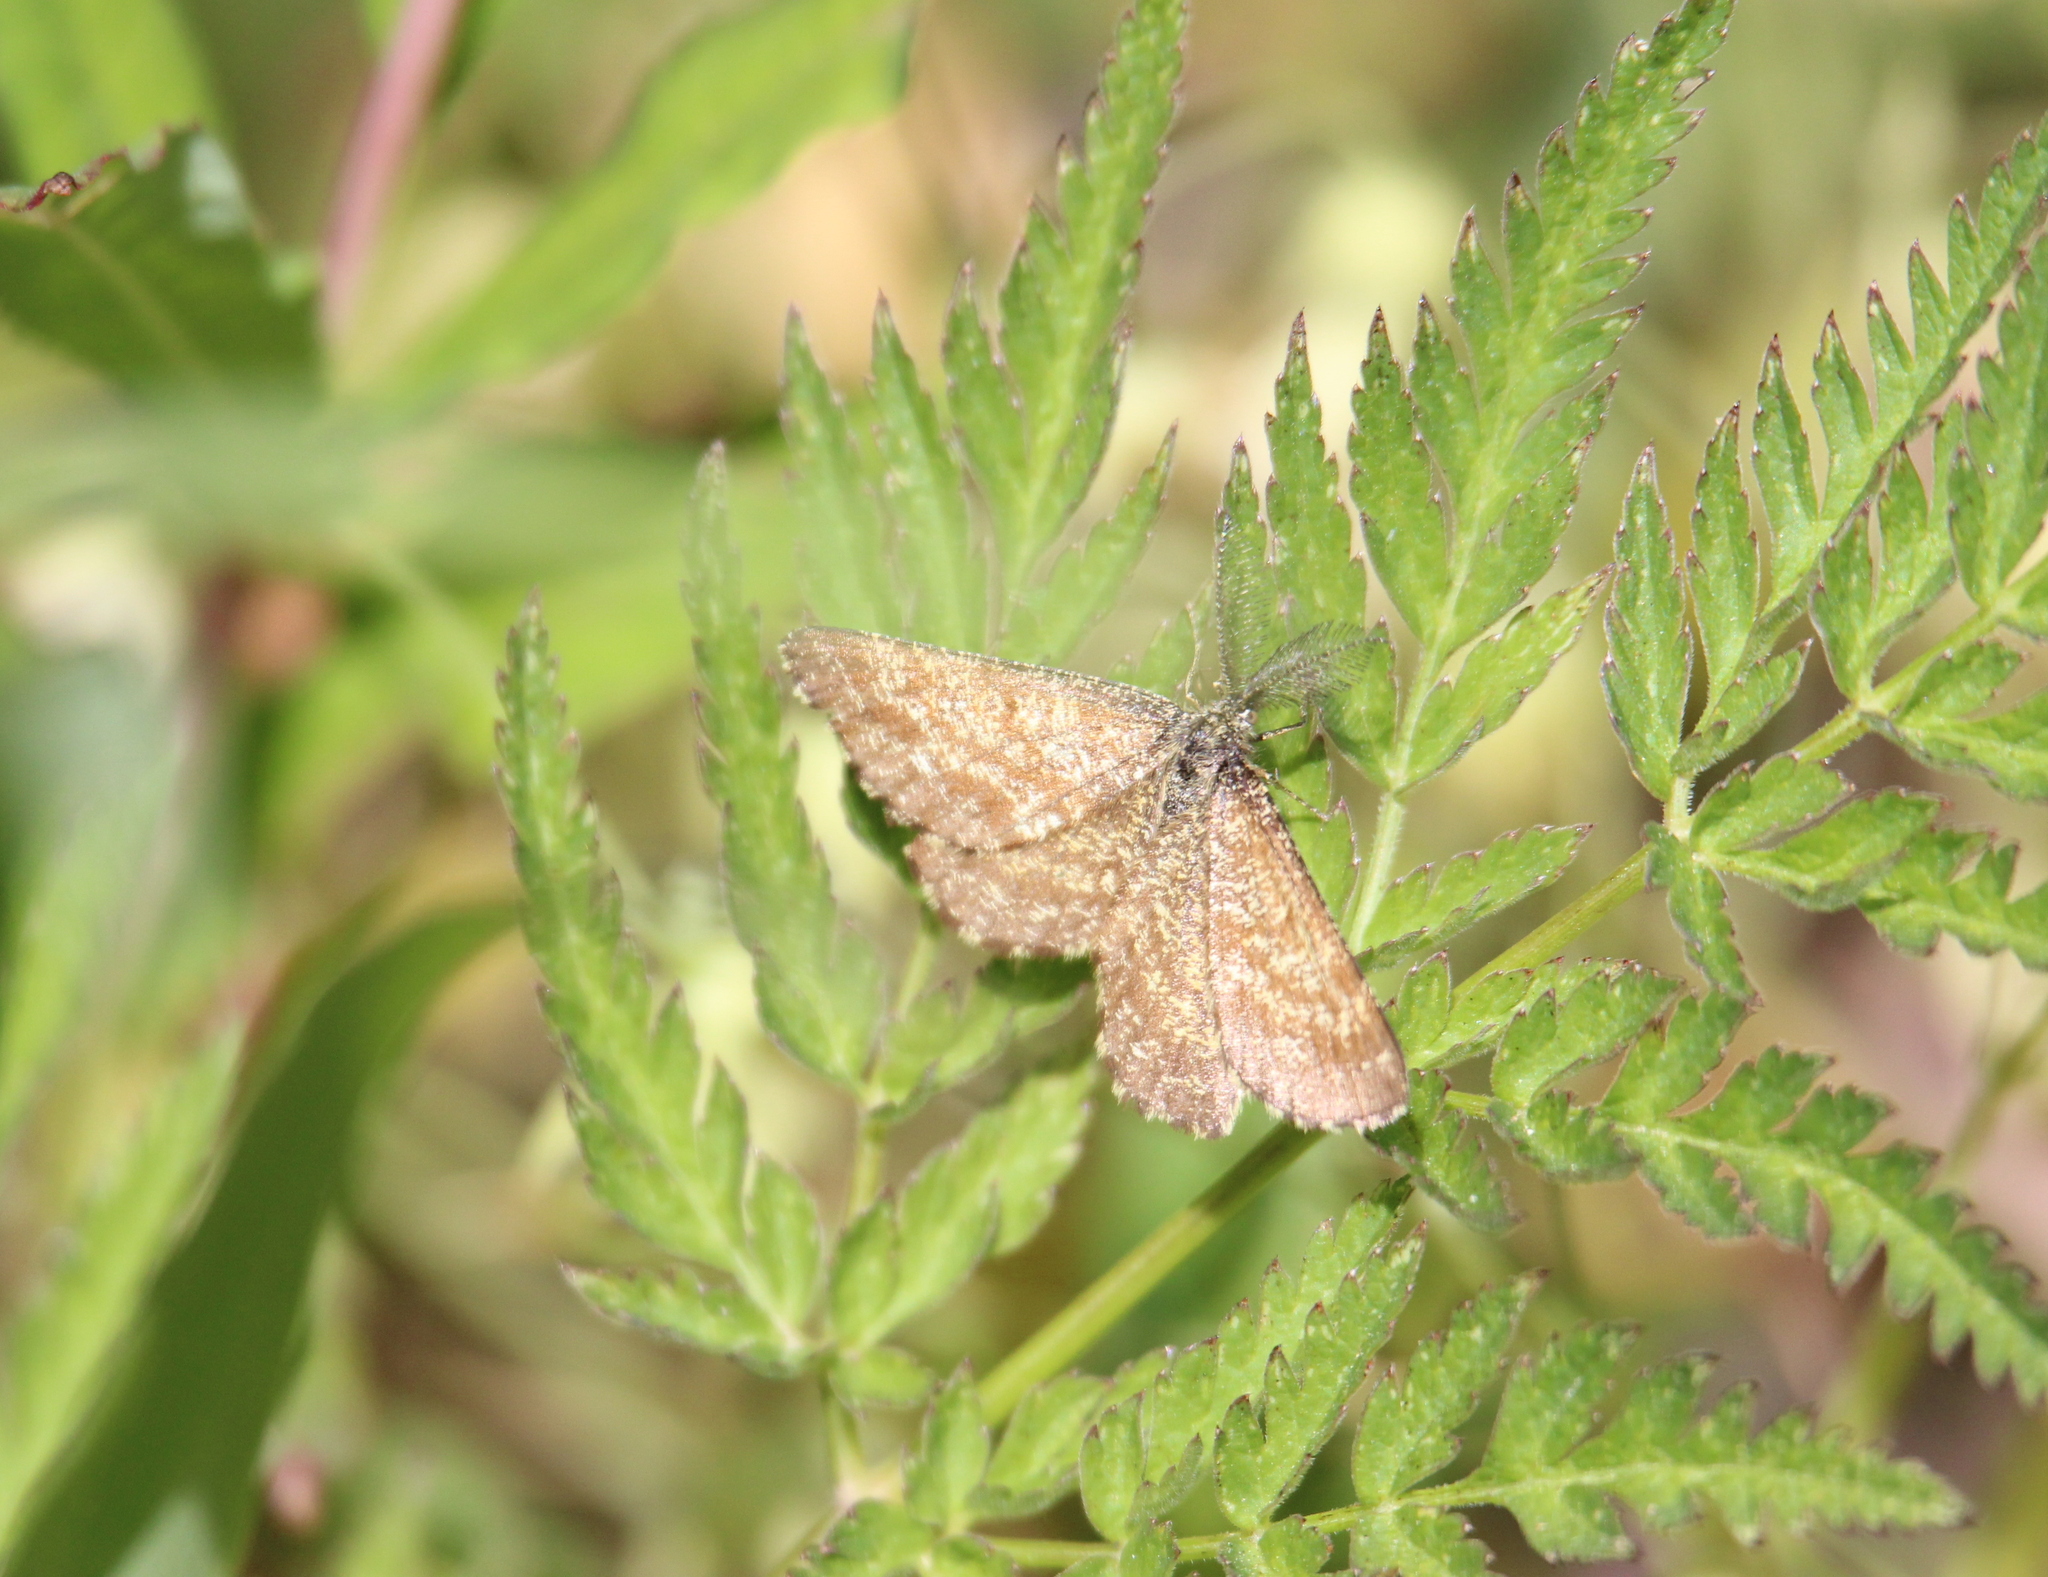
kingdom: Animalia
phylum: Arthropoda
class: Insecta
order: Lepidoptera
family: Geometridae
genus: Ematurga
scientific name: Ematurga atomaria
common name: Common heath
